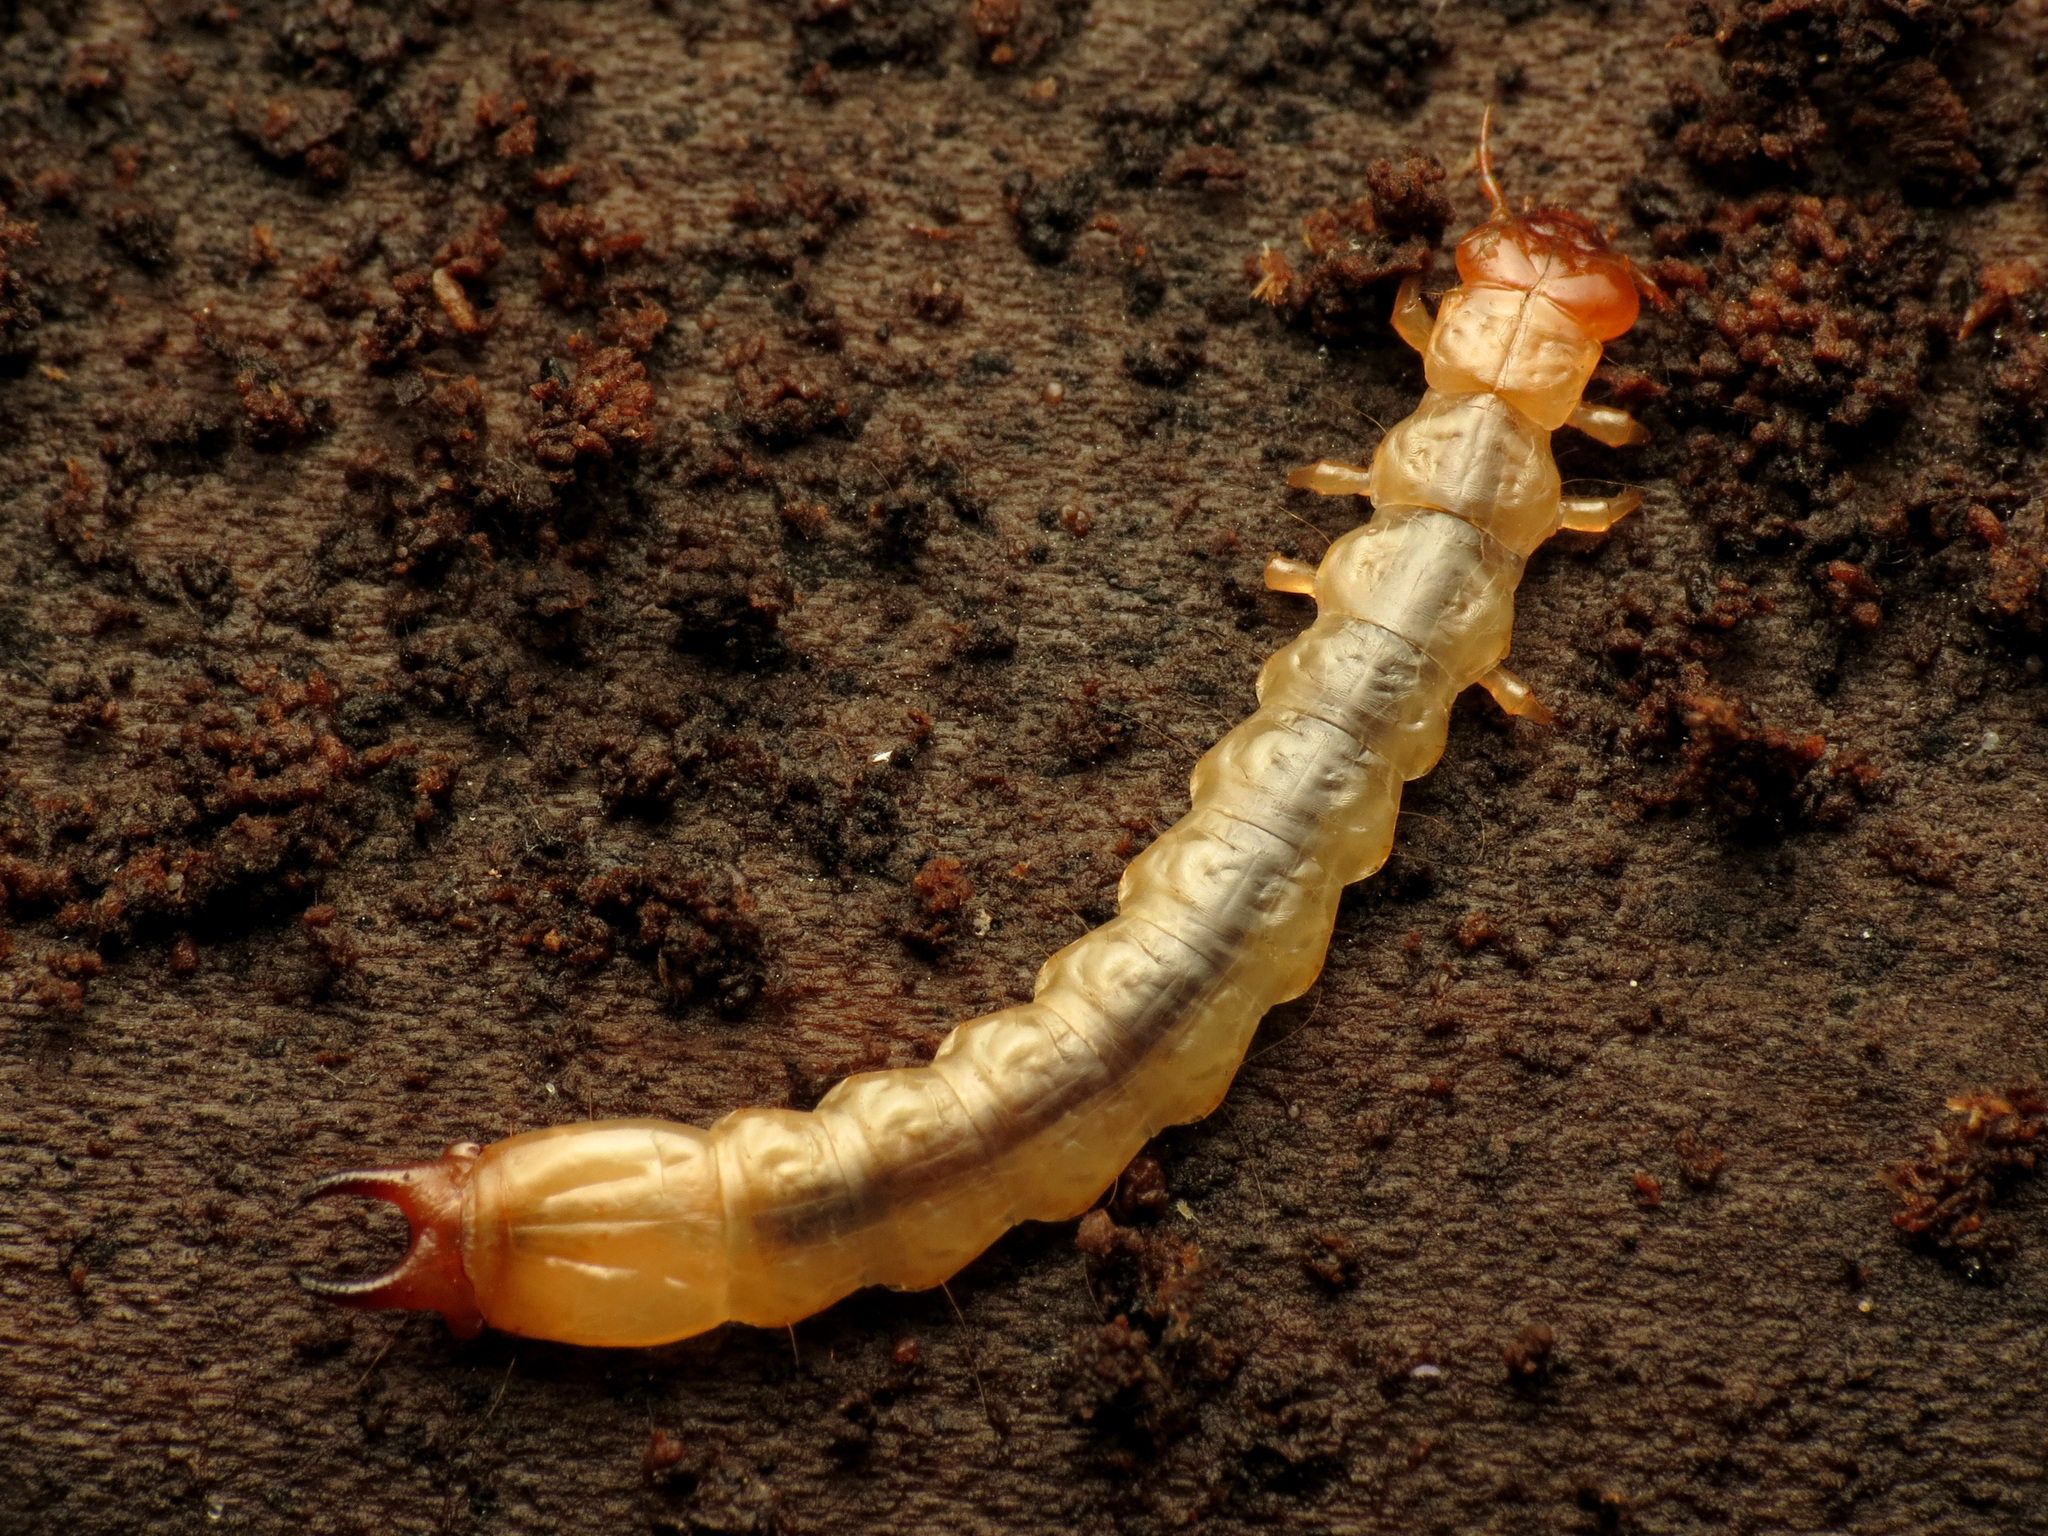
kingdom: Animalia
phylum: Arthropoda
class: Insecta
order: Coleoptera
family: Pyrochroidae
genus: Dendroides
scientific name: Dendroides canadensis
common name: Canada fire-colored beetle
